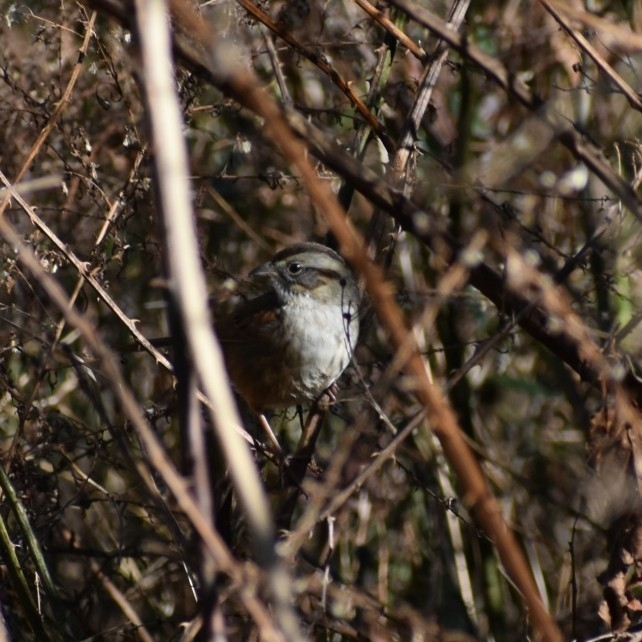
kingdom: Animalia
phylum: Chordata
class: Aves
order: Passeriformes
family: Passerellidae
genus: Melospiza
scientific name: Melospiza georgiana
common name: Swamp sparrow
